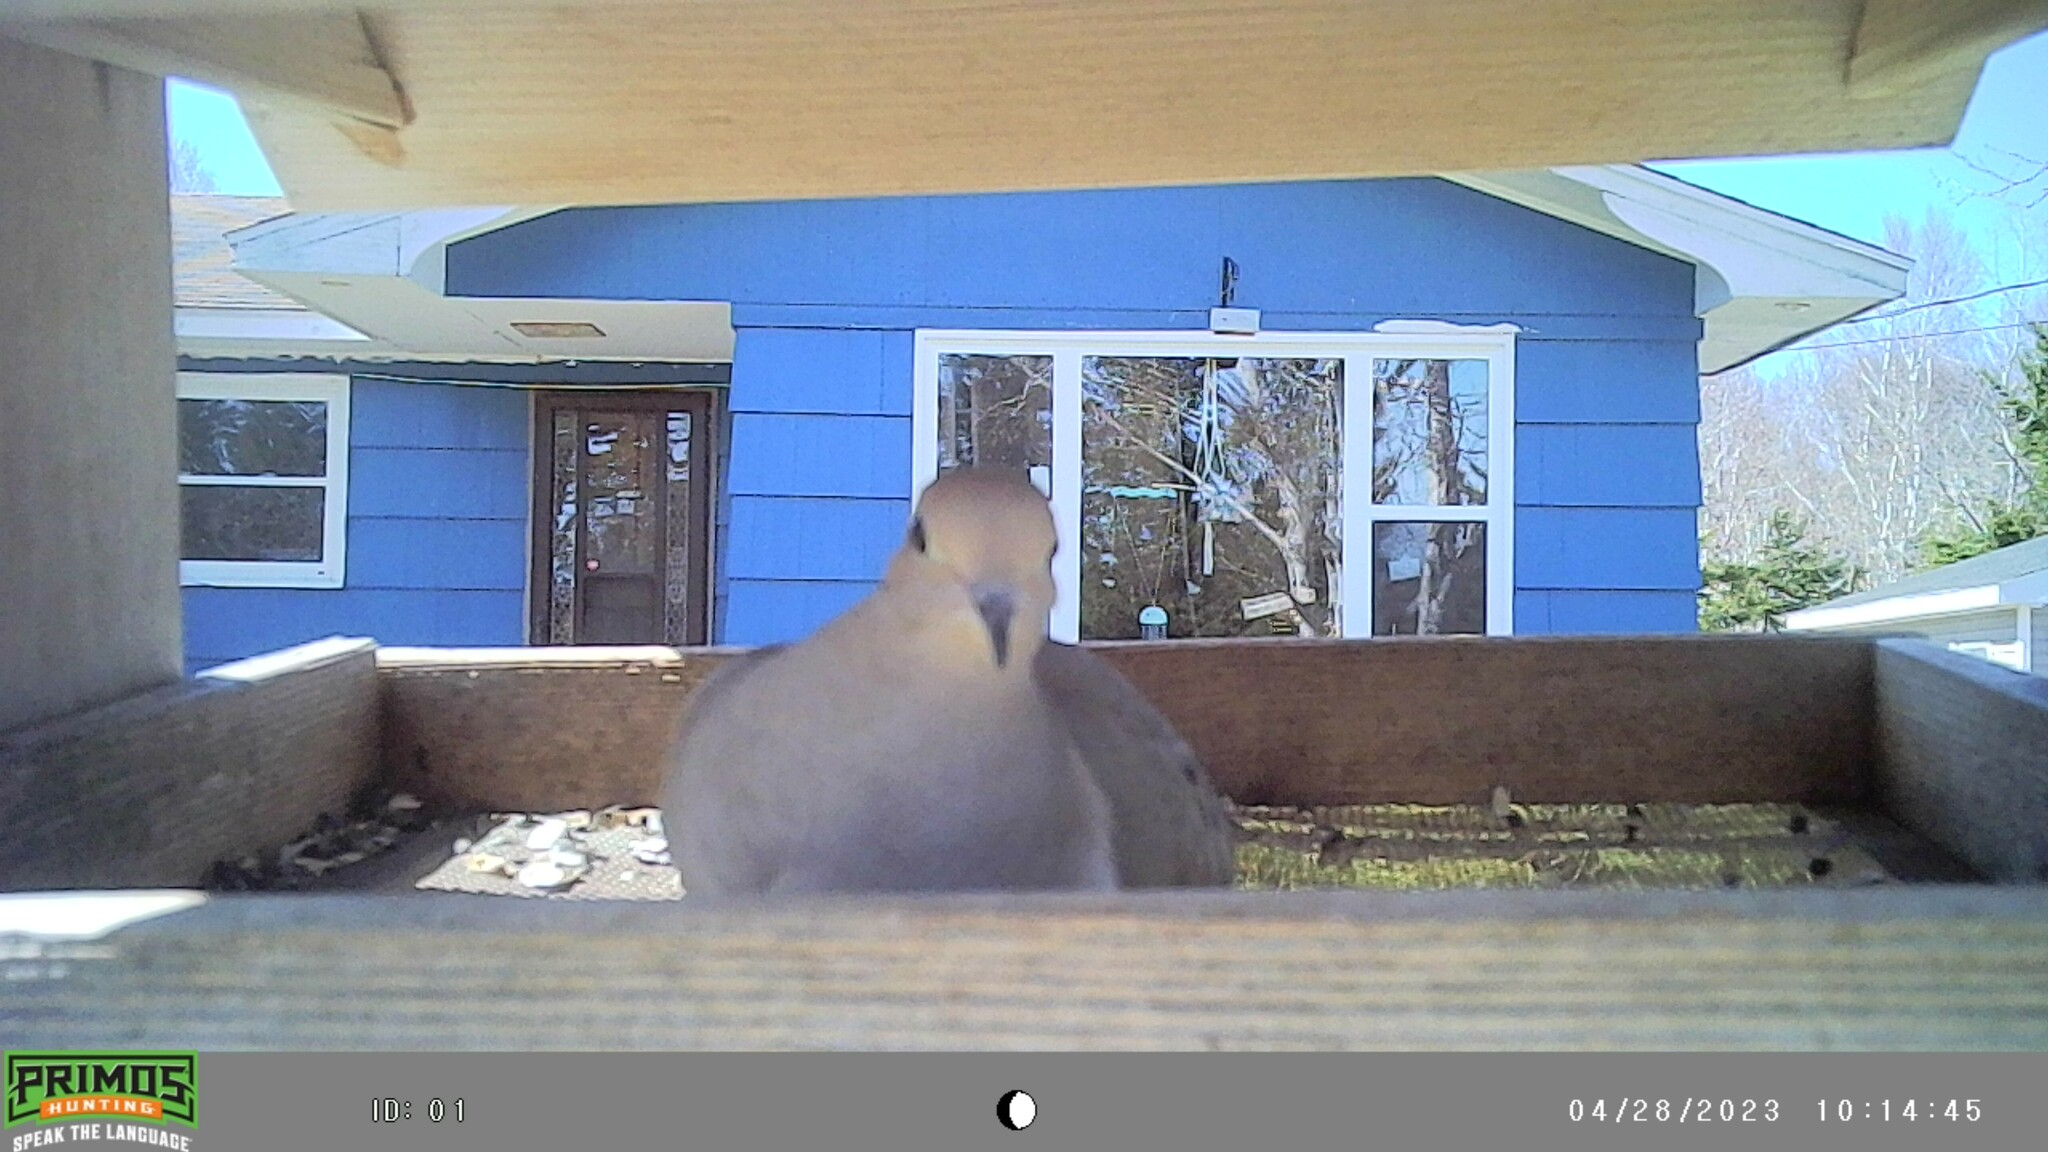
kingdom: Animalia
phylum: Chordata
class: Aves
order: Columbiformes
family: Columbidae
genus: Zenaida
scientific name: Zenaida macroura
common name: Mourning dove
